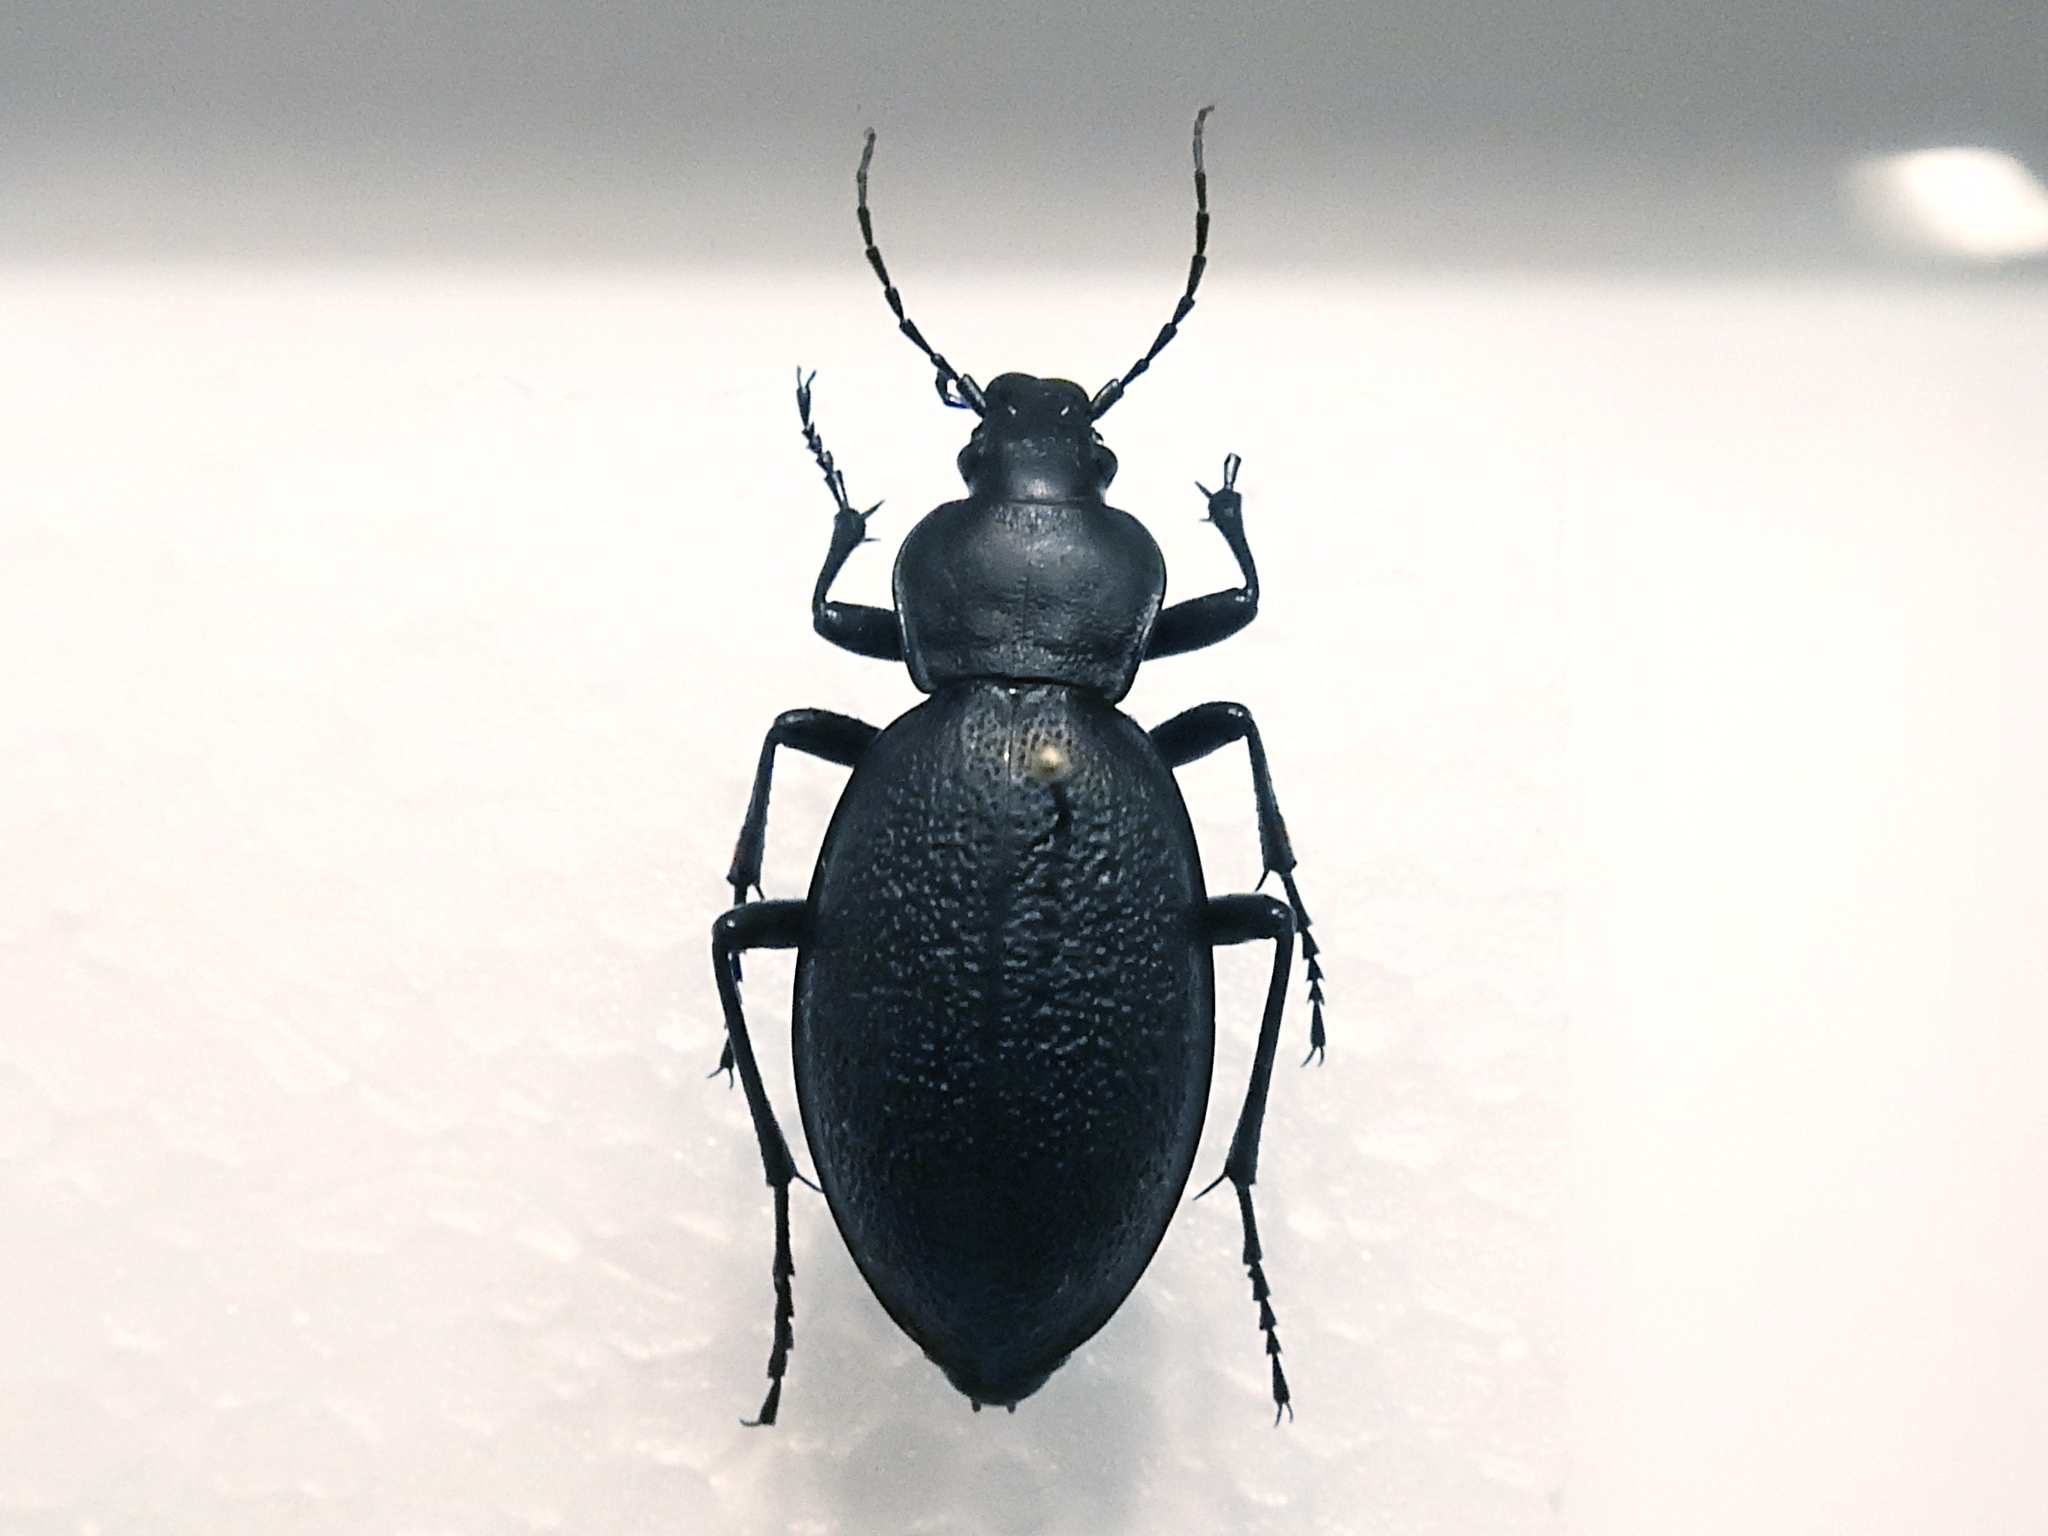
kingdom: Animalia
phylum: Arthropoda
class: Insecta
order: Coleoptera
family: Carabidae
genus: Carabus
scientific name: Carabus coriaceus
